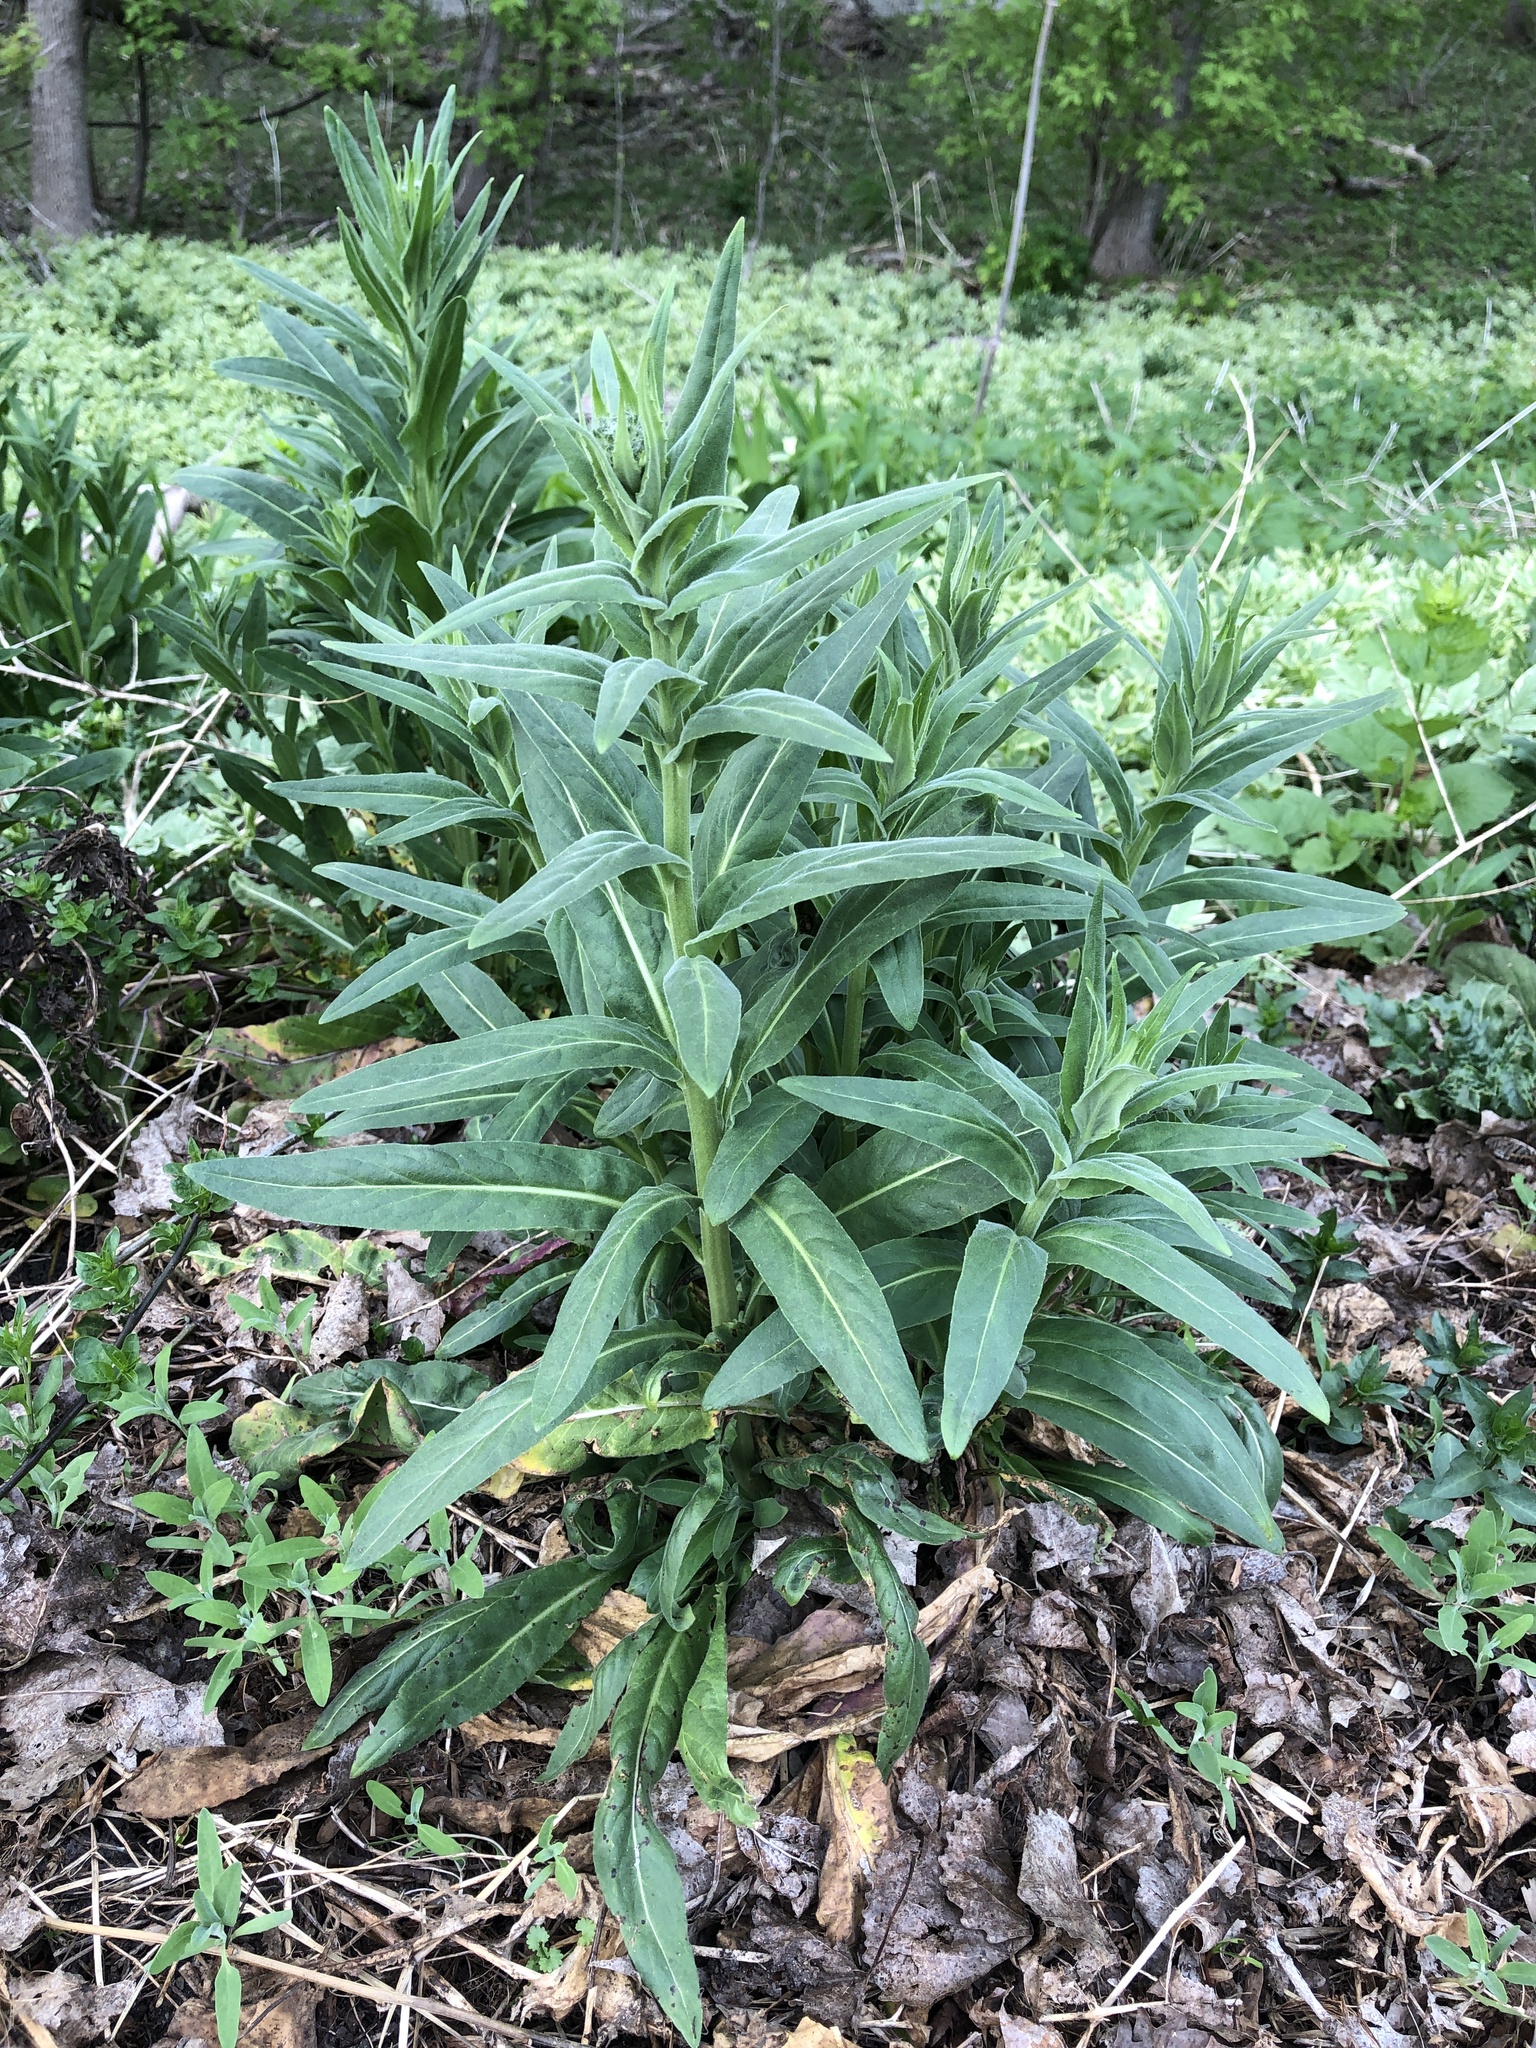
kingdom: Plantae
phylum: Tracheophyta
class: Magnoliopsida
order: Brassicales
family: Brassicaceae
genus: Hesperis
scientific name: Hesperis matronalis
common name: Dame's-violet
